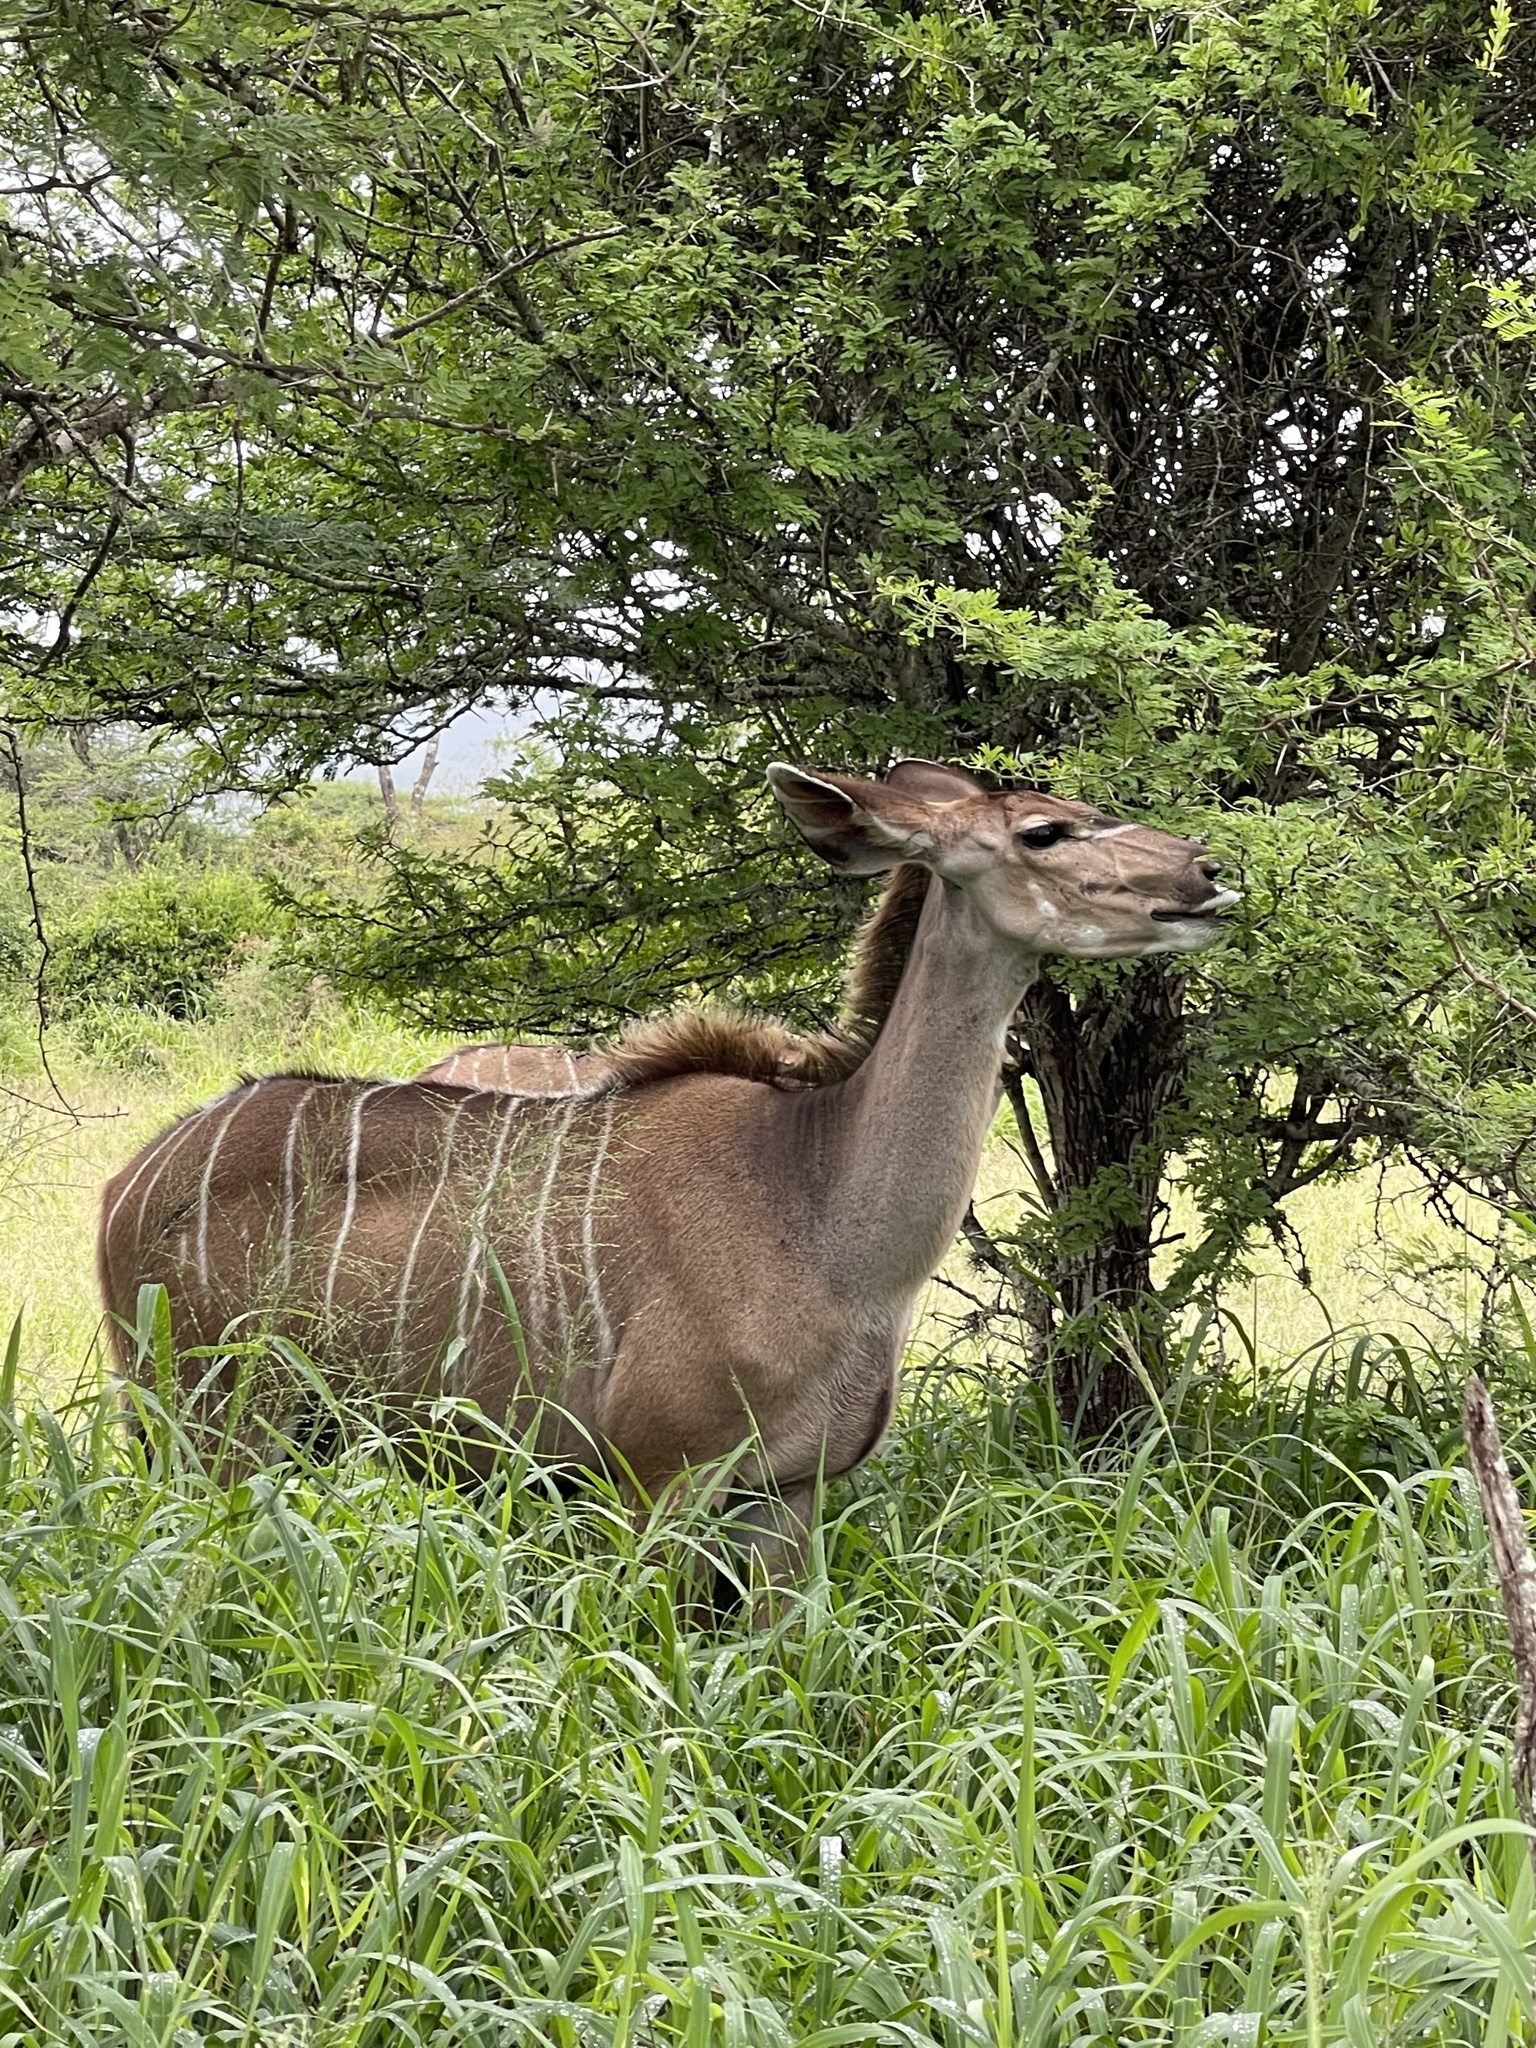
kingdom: Animalia
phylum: Chordata
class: Mammalia
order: Artiodactyla
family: Bovidae
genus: Tragelaphus
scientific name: Tragelaphus strepsiceros
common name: Greater kudu
